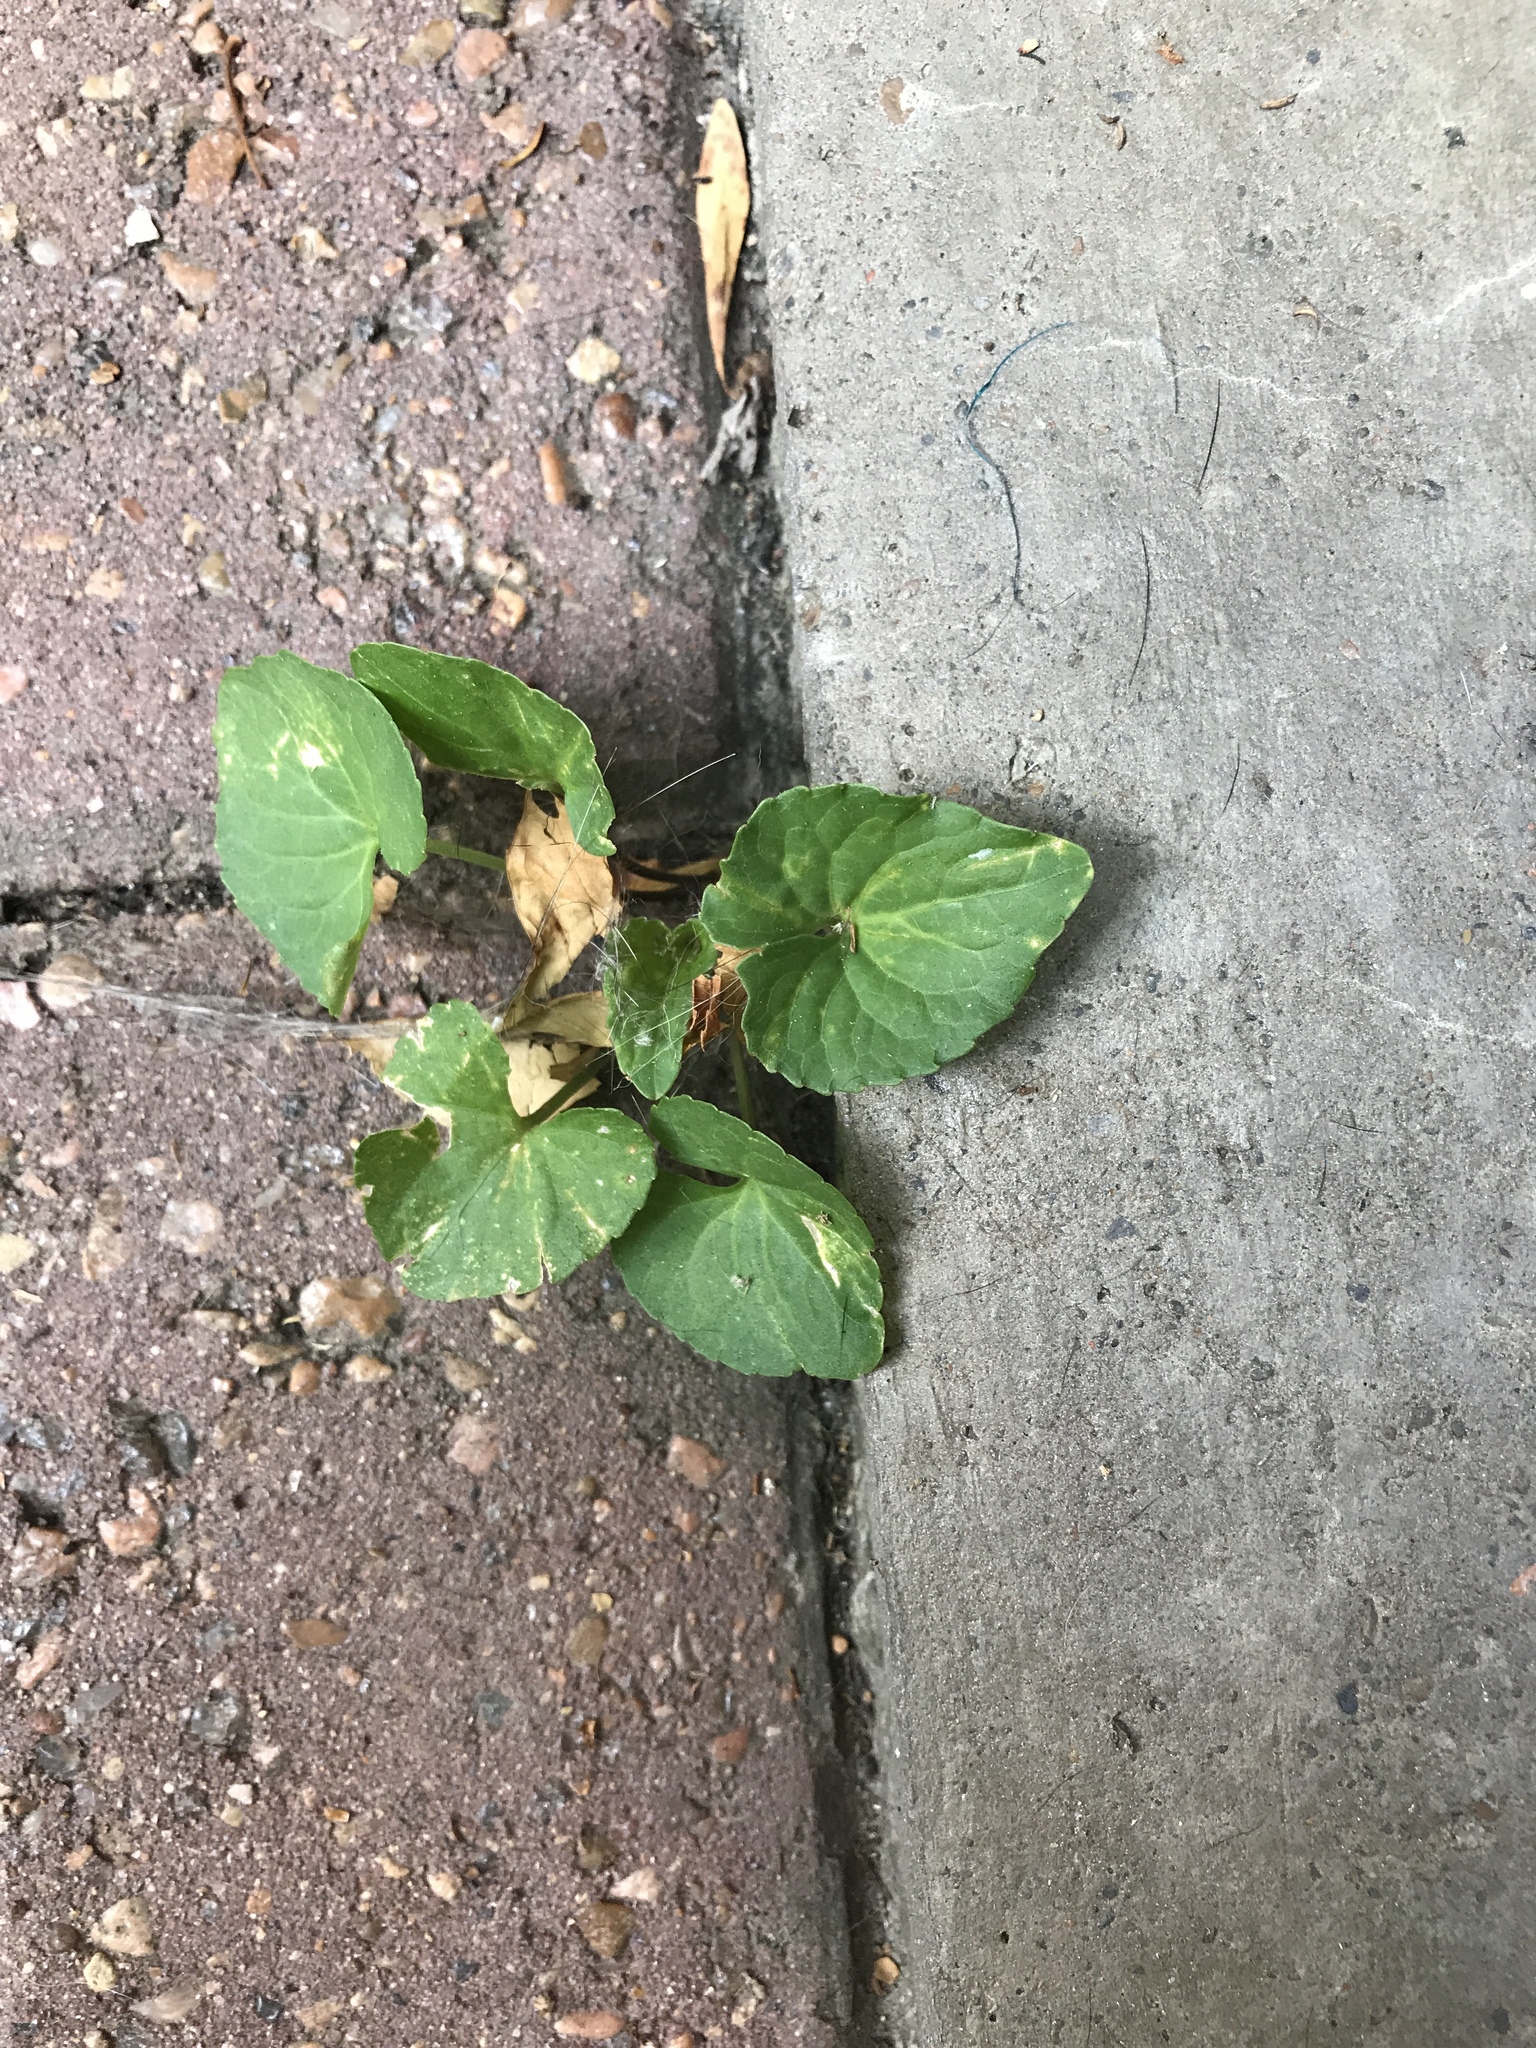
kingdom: Plantae
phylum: Tracheophyta
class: Magnoliopsida
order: Malpighiales
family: Violaceae
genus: Viola
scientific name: Viola sororia
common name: Dooryard violet
